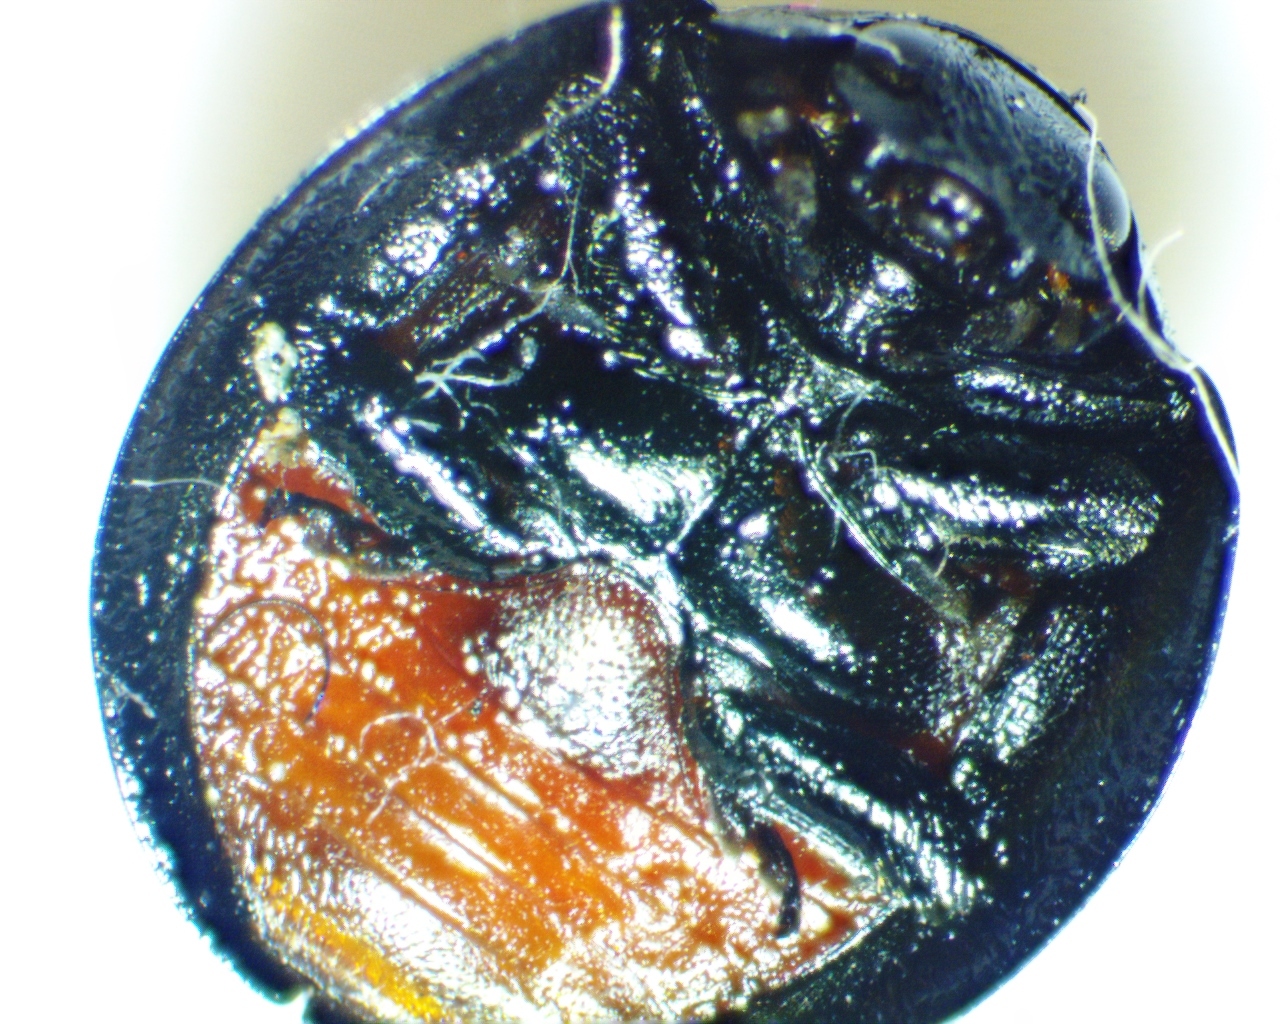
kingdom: Animalia
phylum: Arthropoda
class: Insecta
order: Coleoptera
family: Coccinellidae
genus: Chilocorus
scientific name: Chilocorus stigma
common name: Twicestabbed lady beetle
